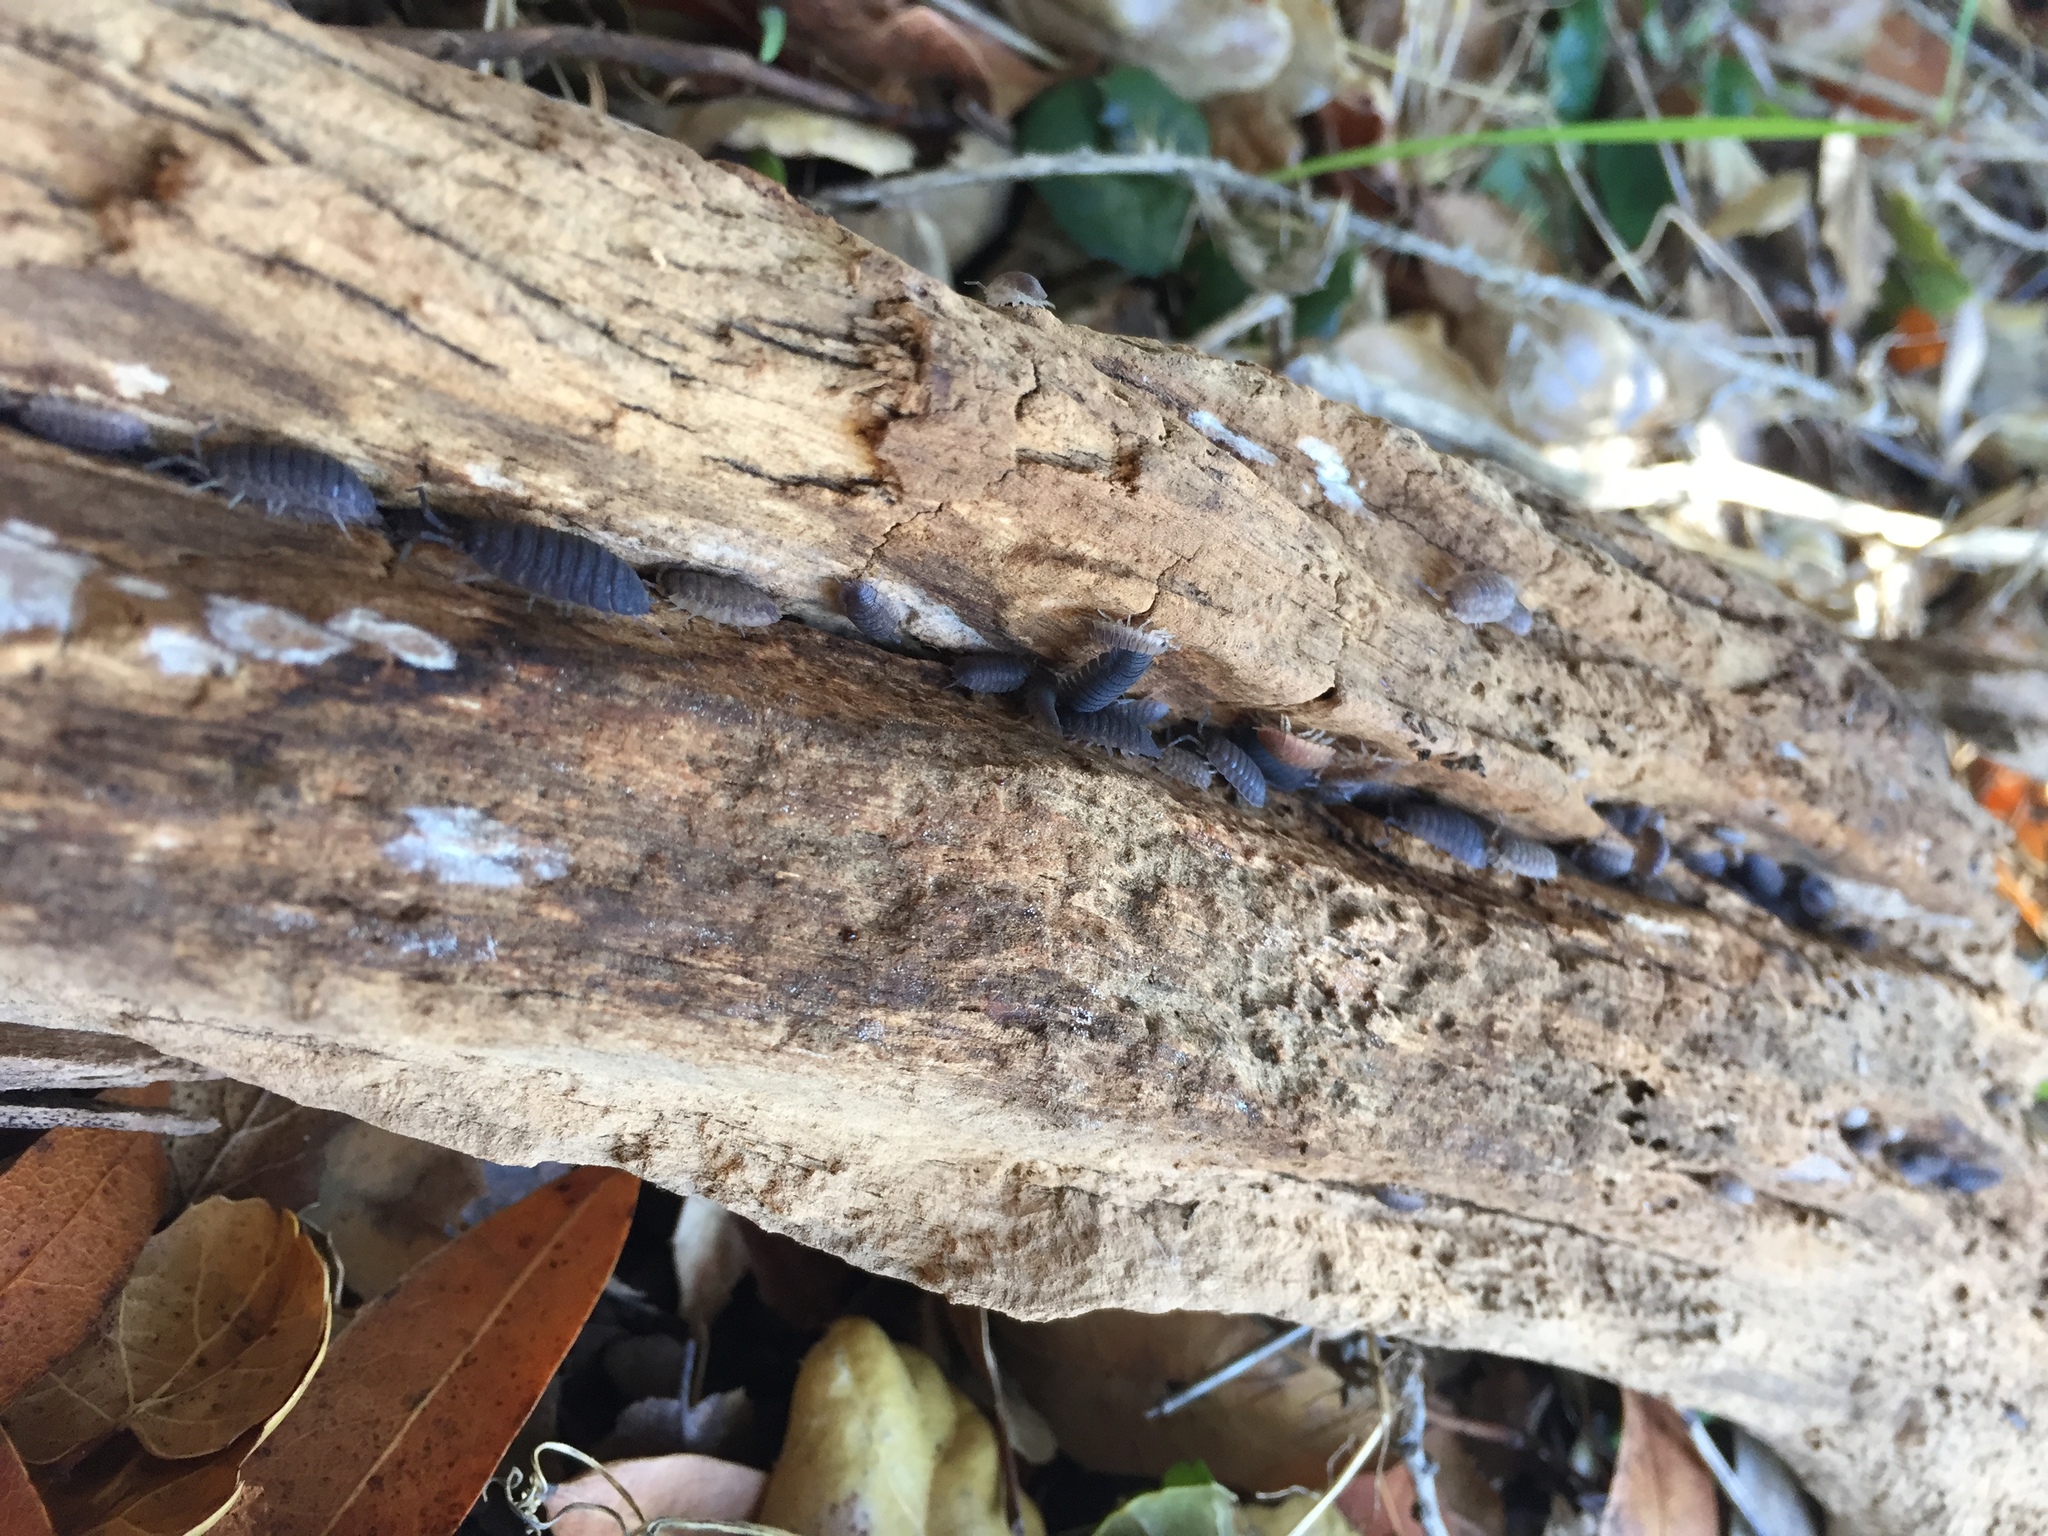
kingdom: Animalia
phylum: Arthropoda
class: Malacostraca
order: Isopoda
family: Porcellionidae
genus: Porcellio
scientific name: Porcellio scaber
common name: Common rough woodlouse
